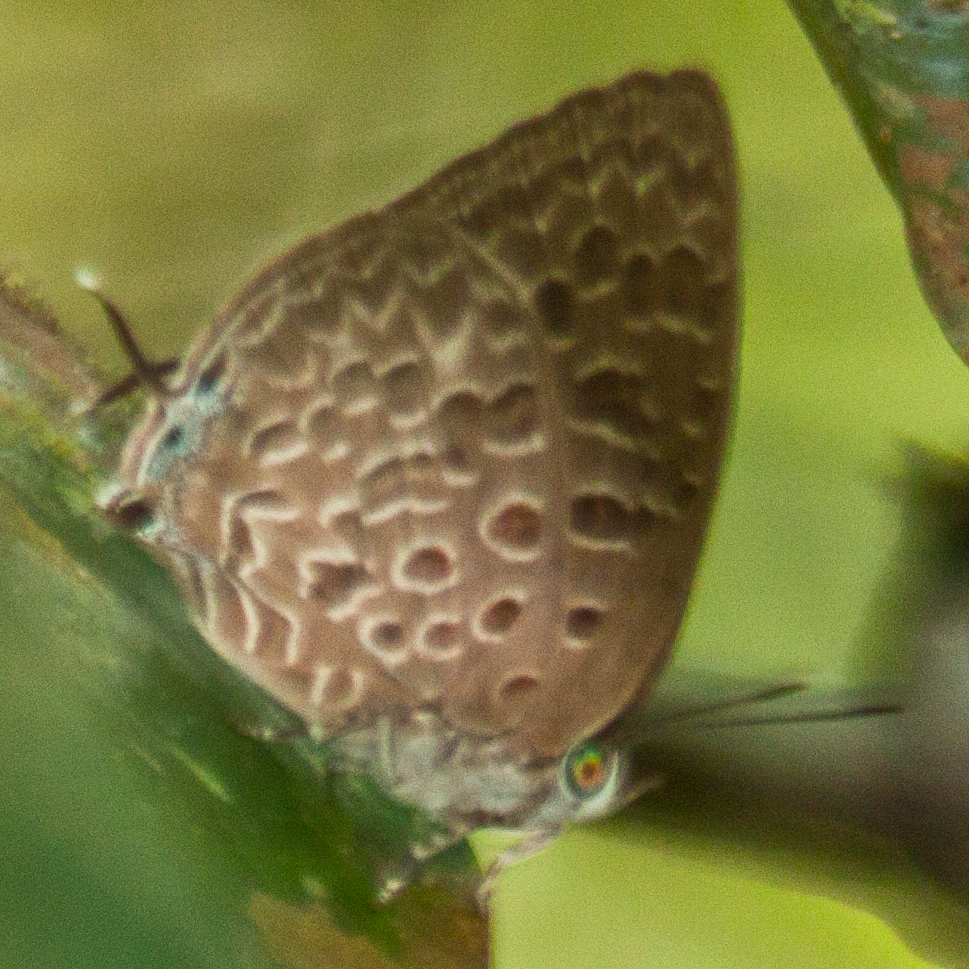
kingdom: Animalia
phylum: Arthropoda
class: Insecta
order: Lepidoptera
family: Lycaenidae
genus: Arhopala
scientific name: Arhopala alitaeus
